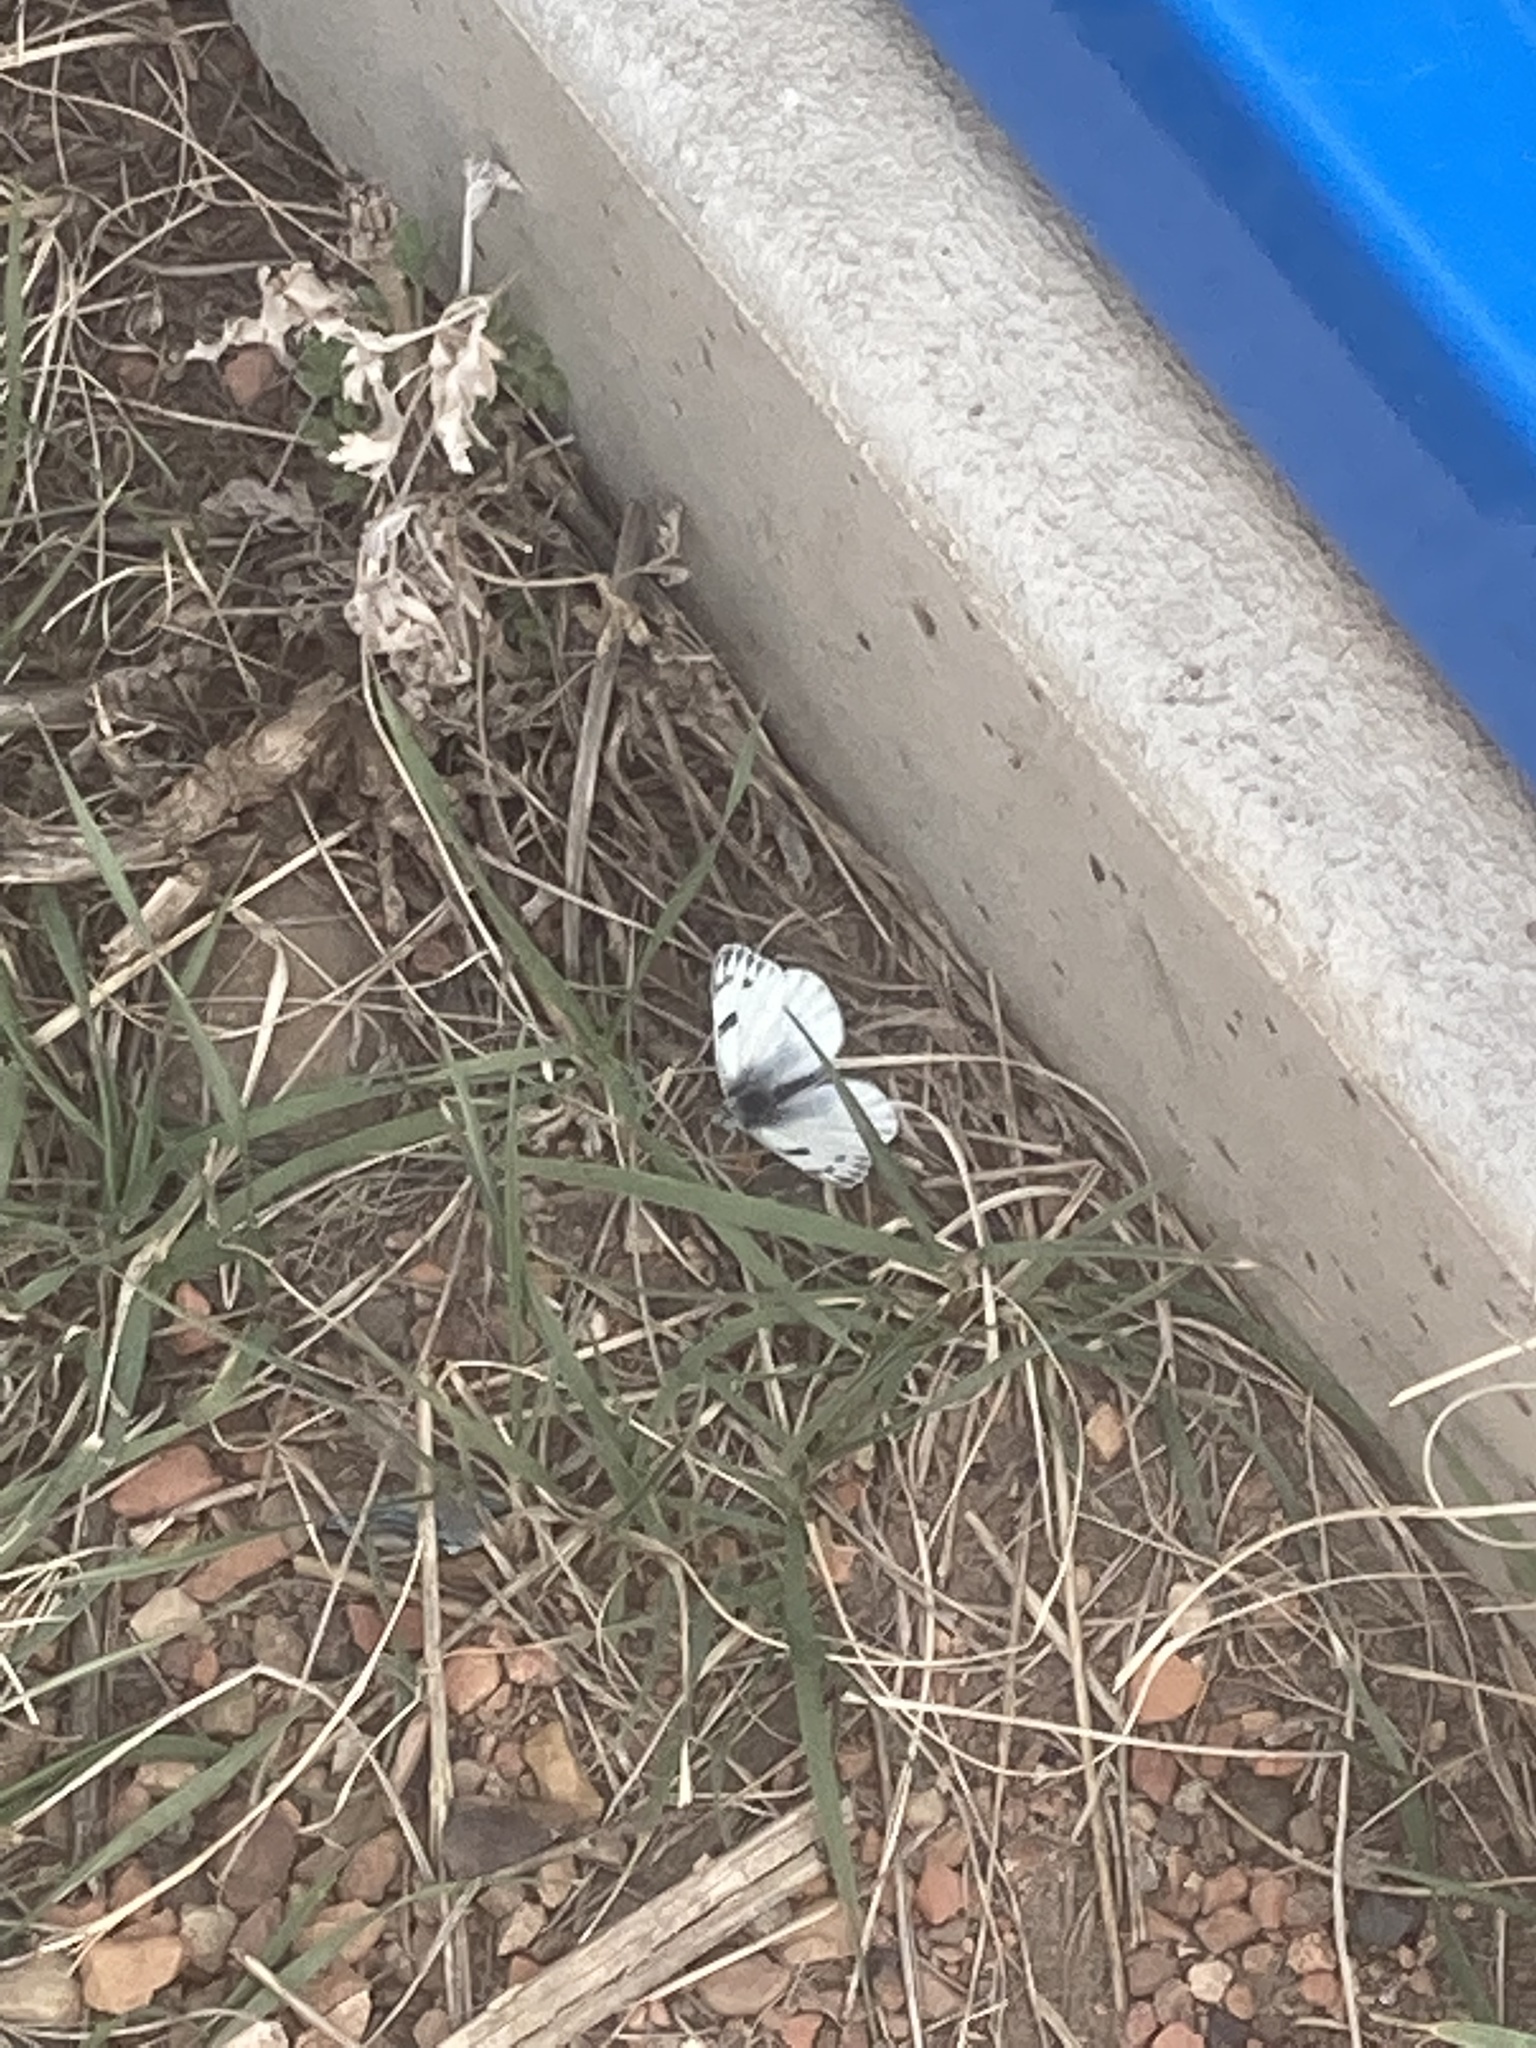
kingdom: Animalia
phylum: Arthropoda
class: Insecta
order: Lepidoptera
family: Pieridae
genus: Pontia
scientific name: Pontia occidentalis
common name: Western white
